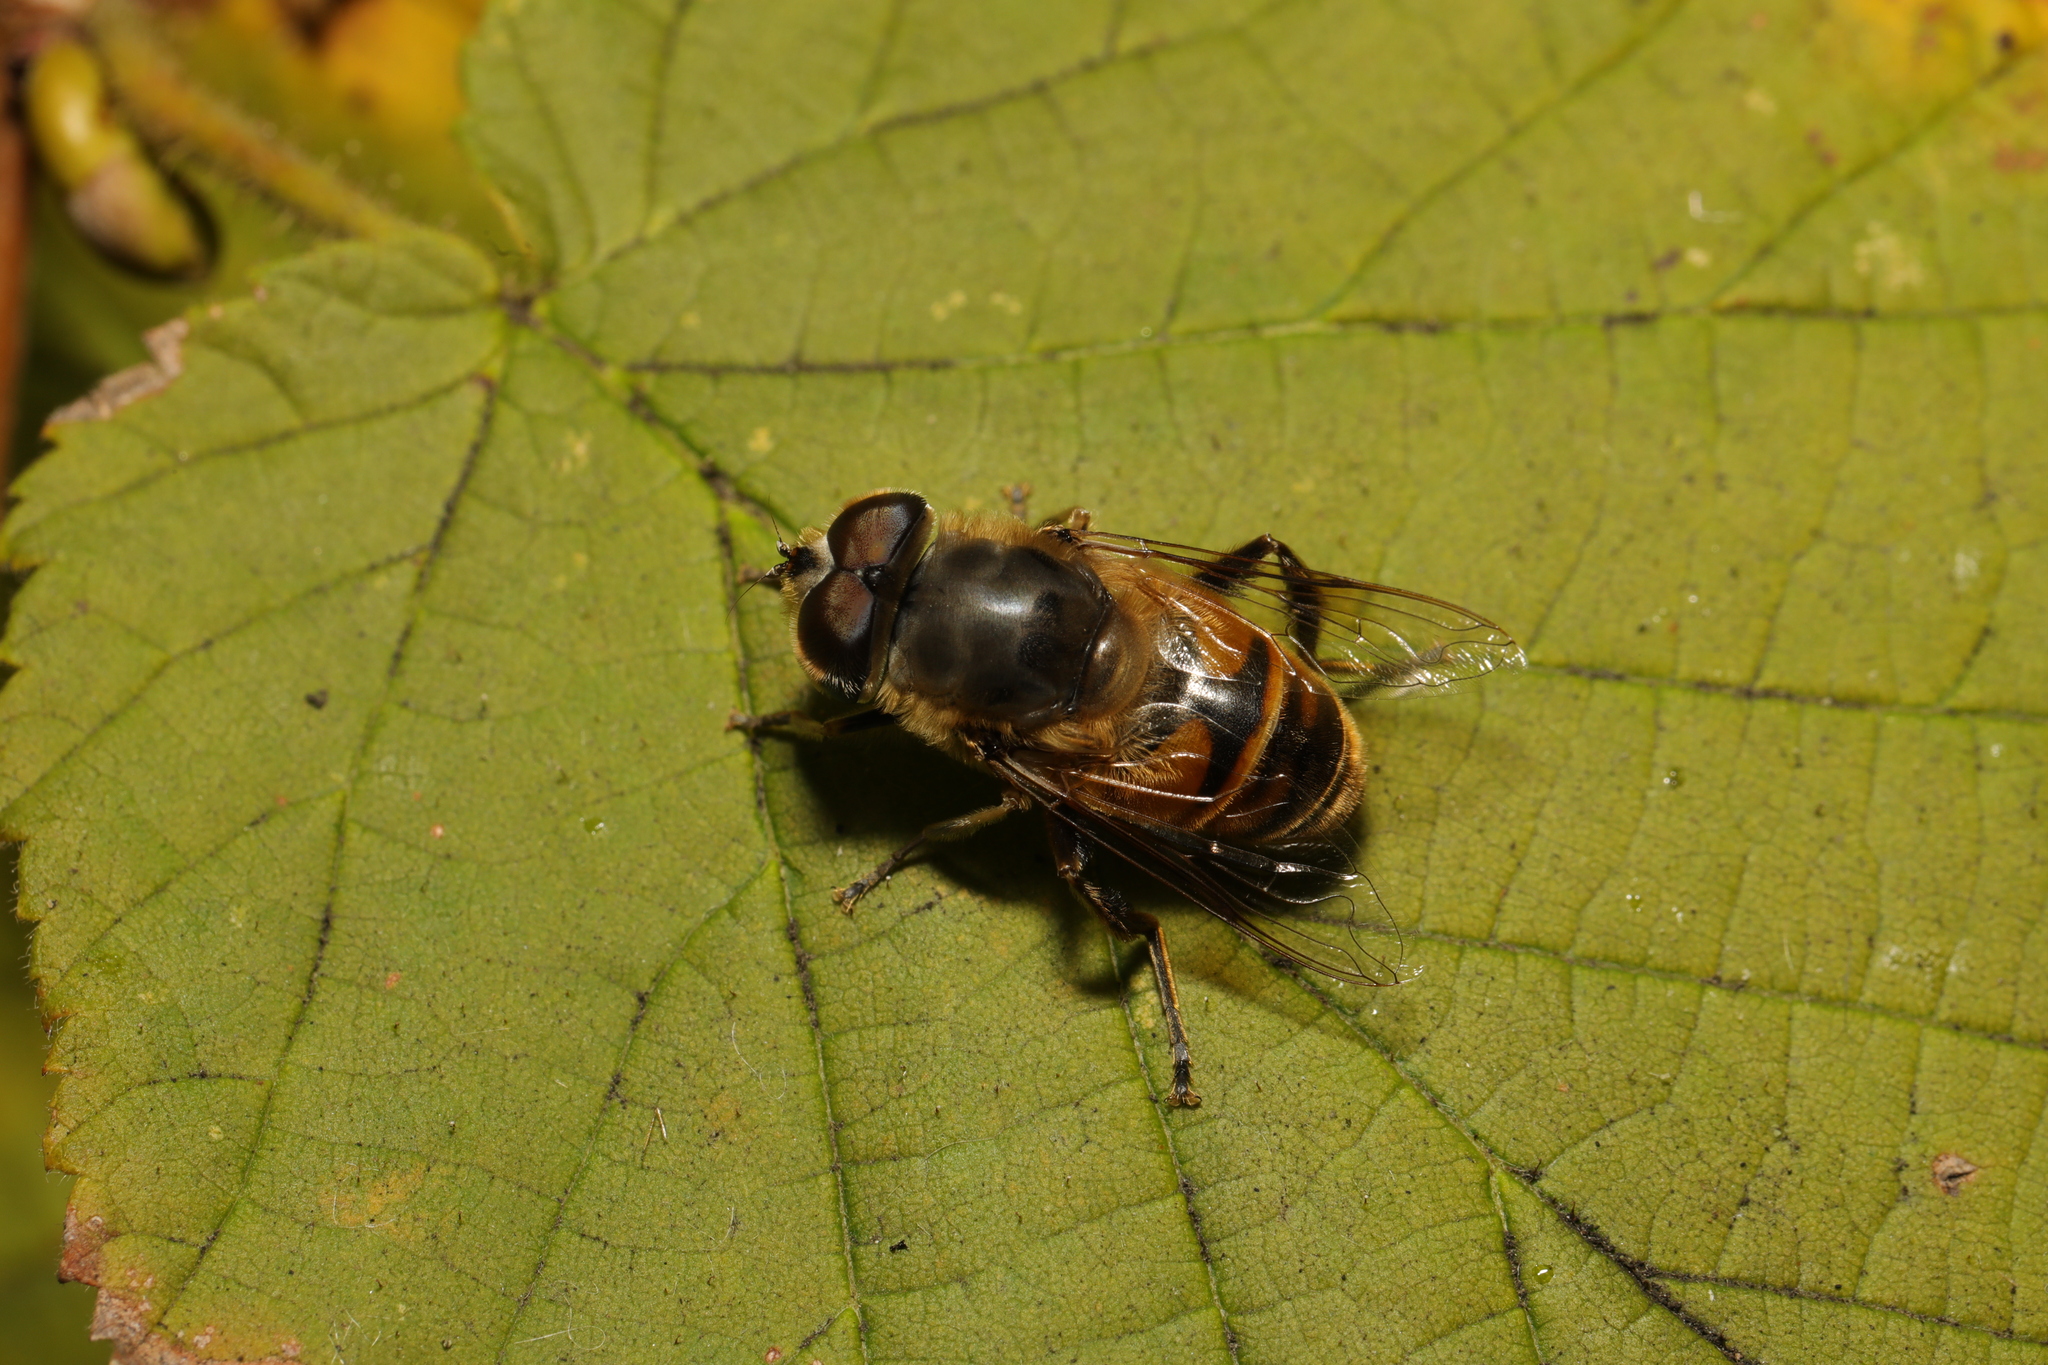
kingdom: Animalia
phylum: Arthropoda
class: Insecta
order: Diptera
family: Syrphidae
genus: Eristalis
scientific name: Eristalis tenax
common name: Drone fly
